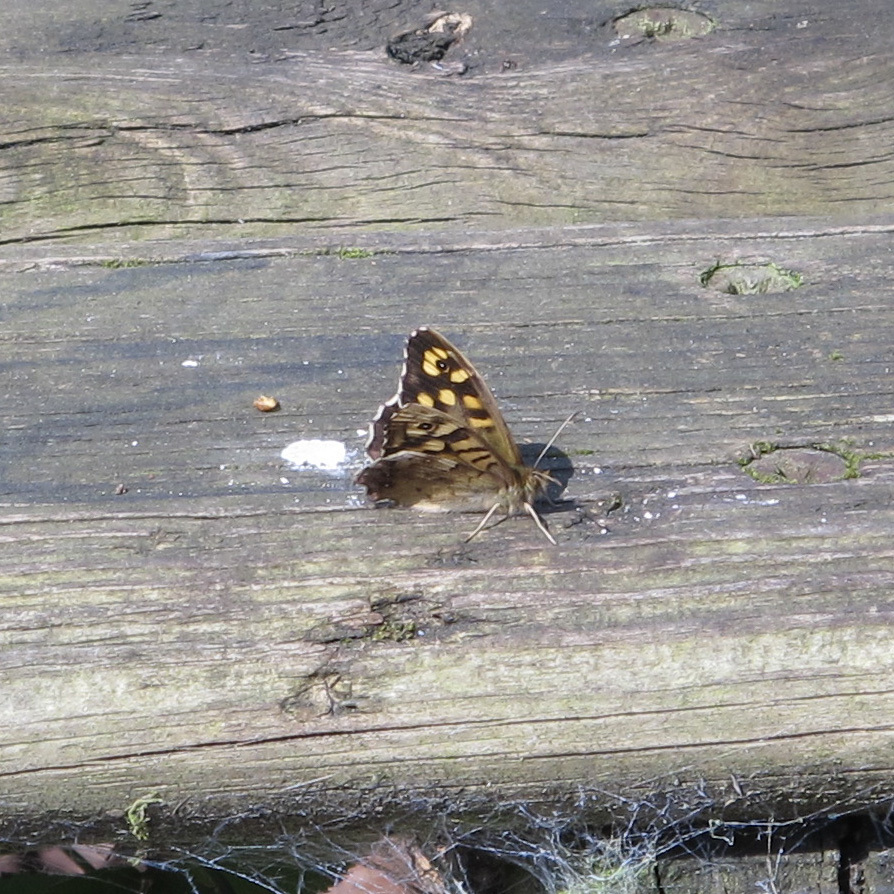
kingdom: Animalia
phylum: Arthropoda
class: Insecta
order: Lepidoptera
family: Nymphalidae
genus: Pararge
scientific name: Pararge aegeria
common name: Speckled wood
